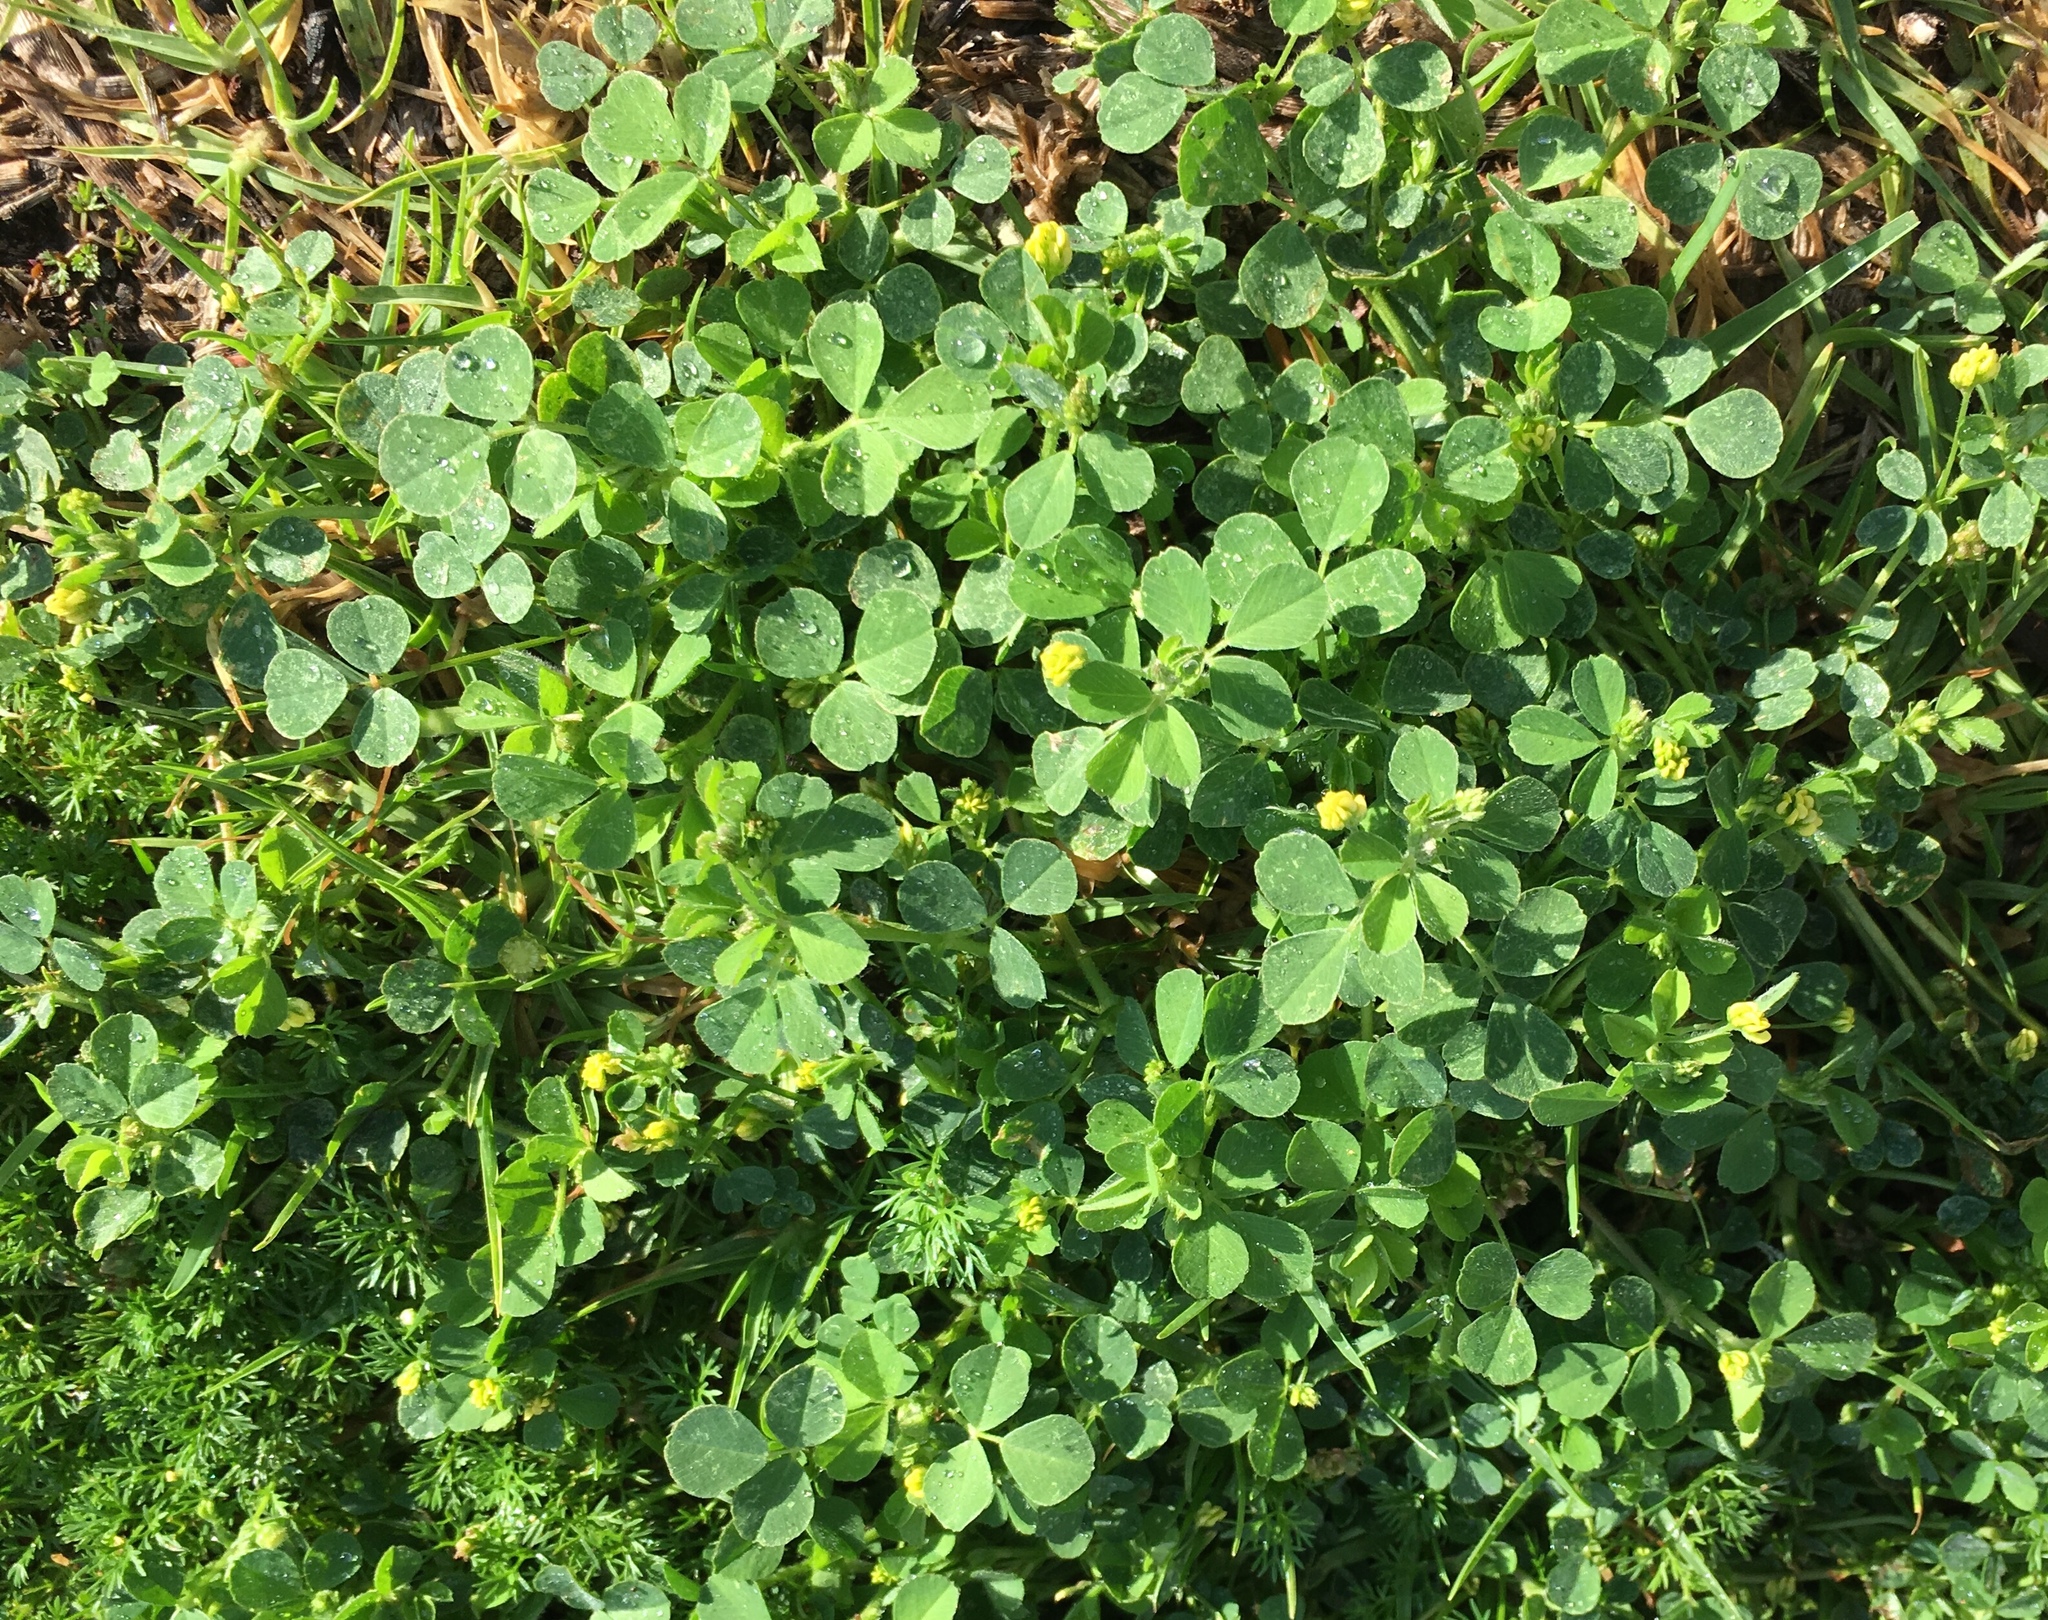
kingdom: Plantae
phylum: Tracheophyta
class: Magnoliopsida
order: Fabales
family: Fabaceae
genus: Medicago
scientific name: Medicago lupulina
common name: Black medick
